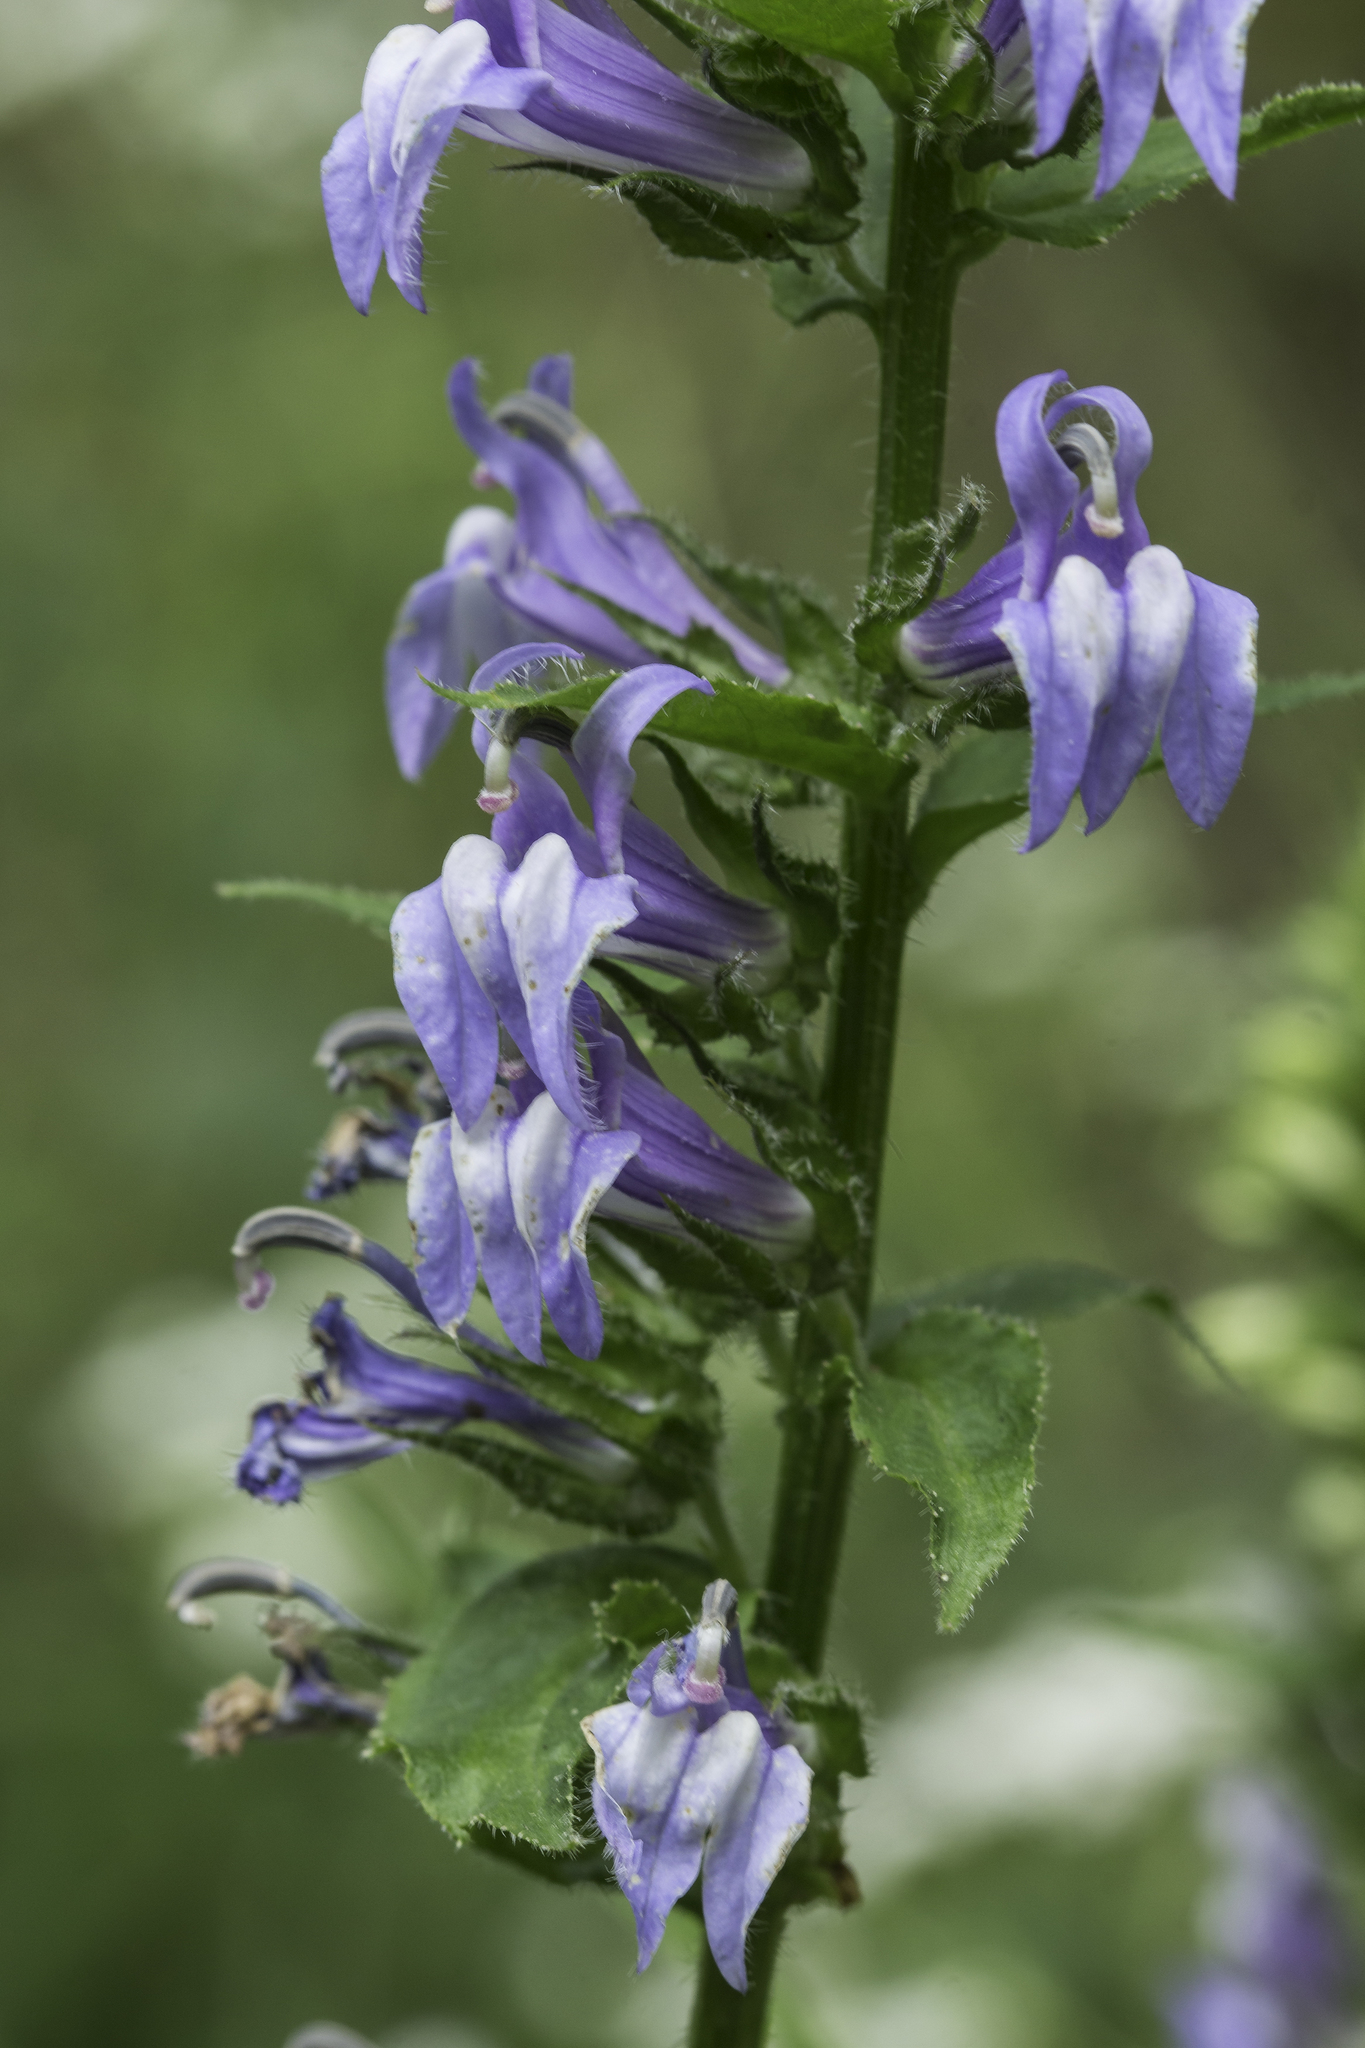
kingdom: Plantae
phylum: Tracheophyta
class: Magnoliopsida
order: Asterales
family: Campanulaceae
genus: Lobelia
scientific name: Lobelia siphilitica
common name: Great lobelia
